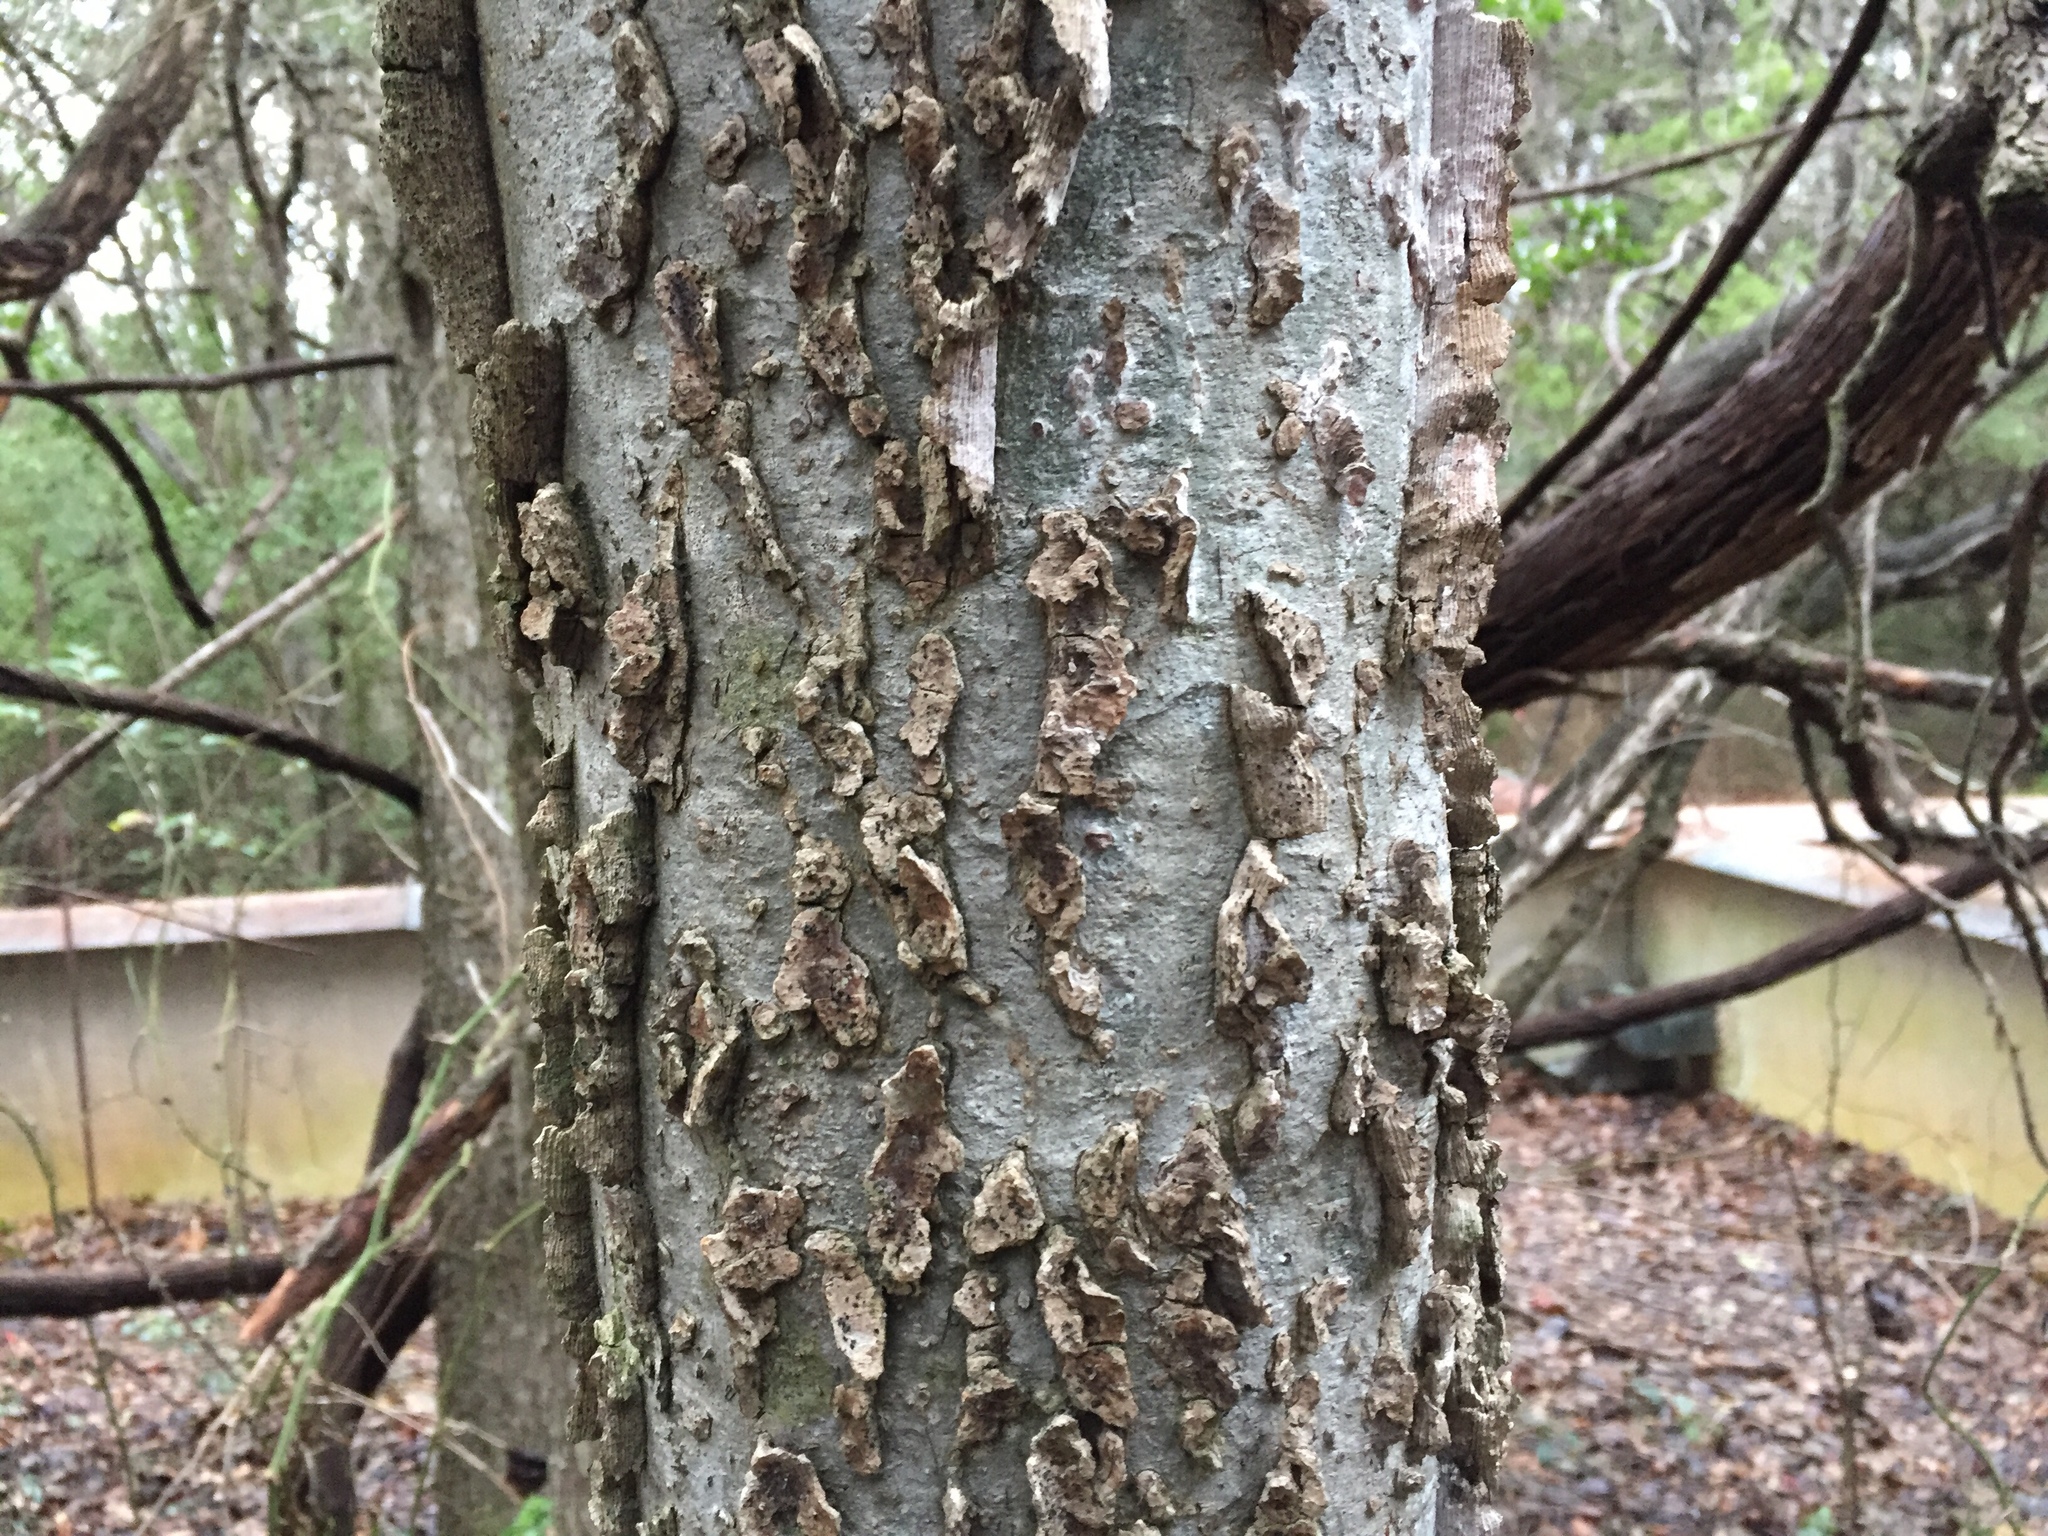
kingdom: Plantae
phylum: Tracheophyta
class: Magnoliopsida
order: Rosales
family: Cannabaceae
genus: Celtis
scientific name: Celtis laevigata
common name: Sugarberry
